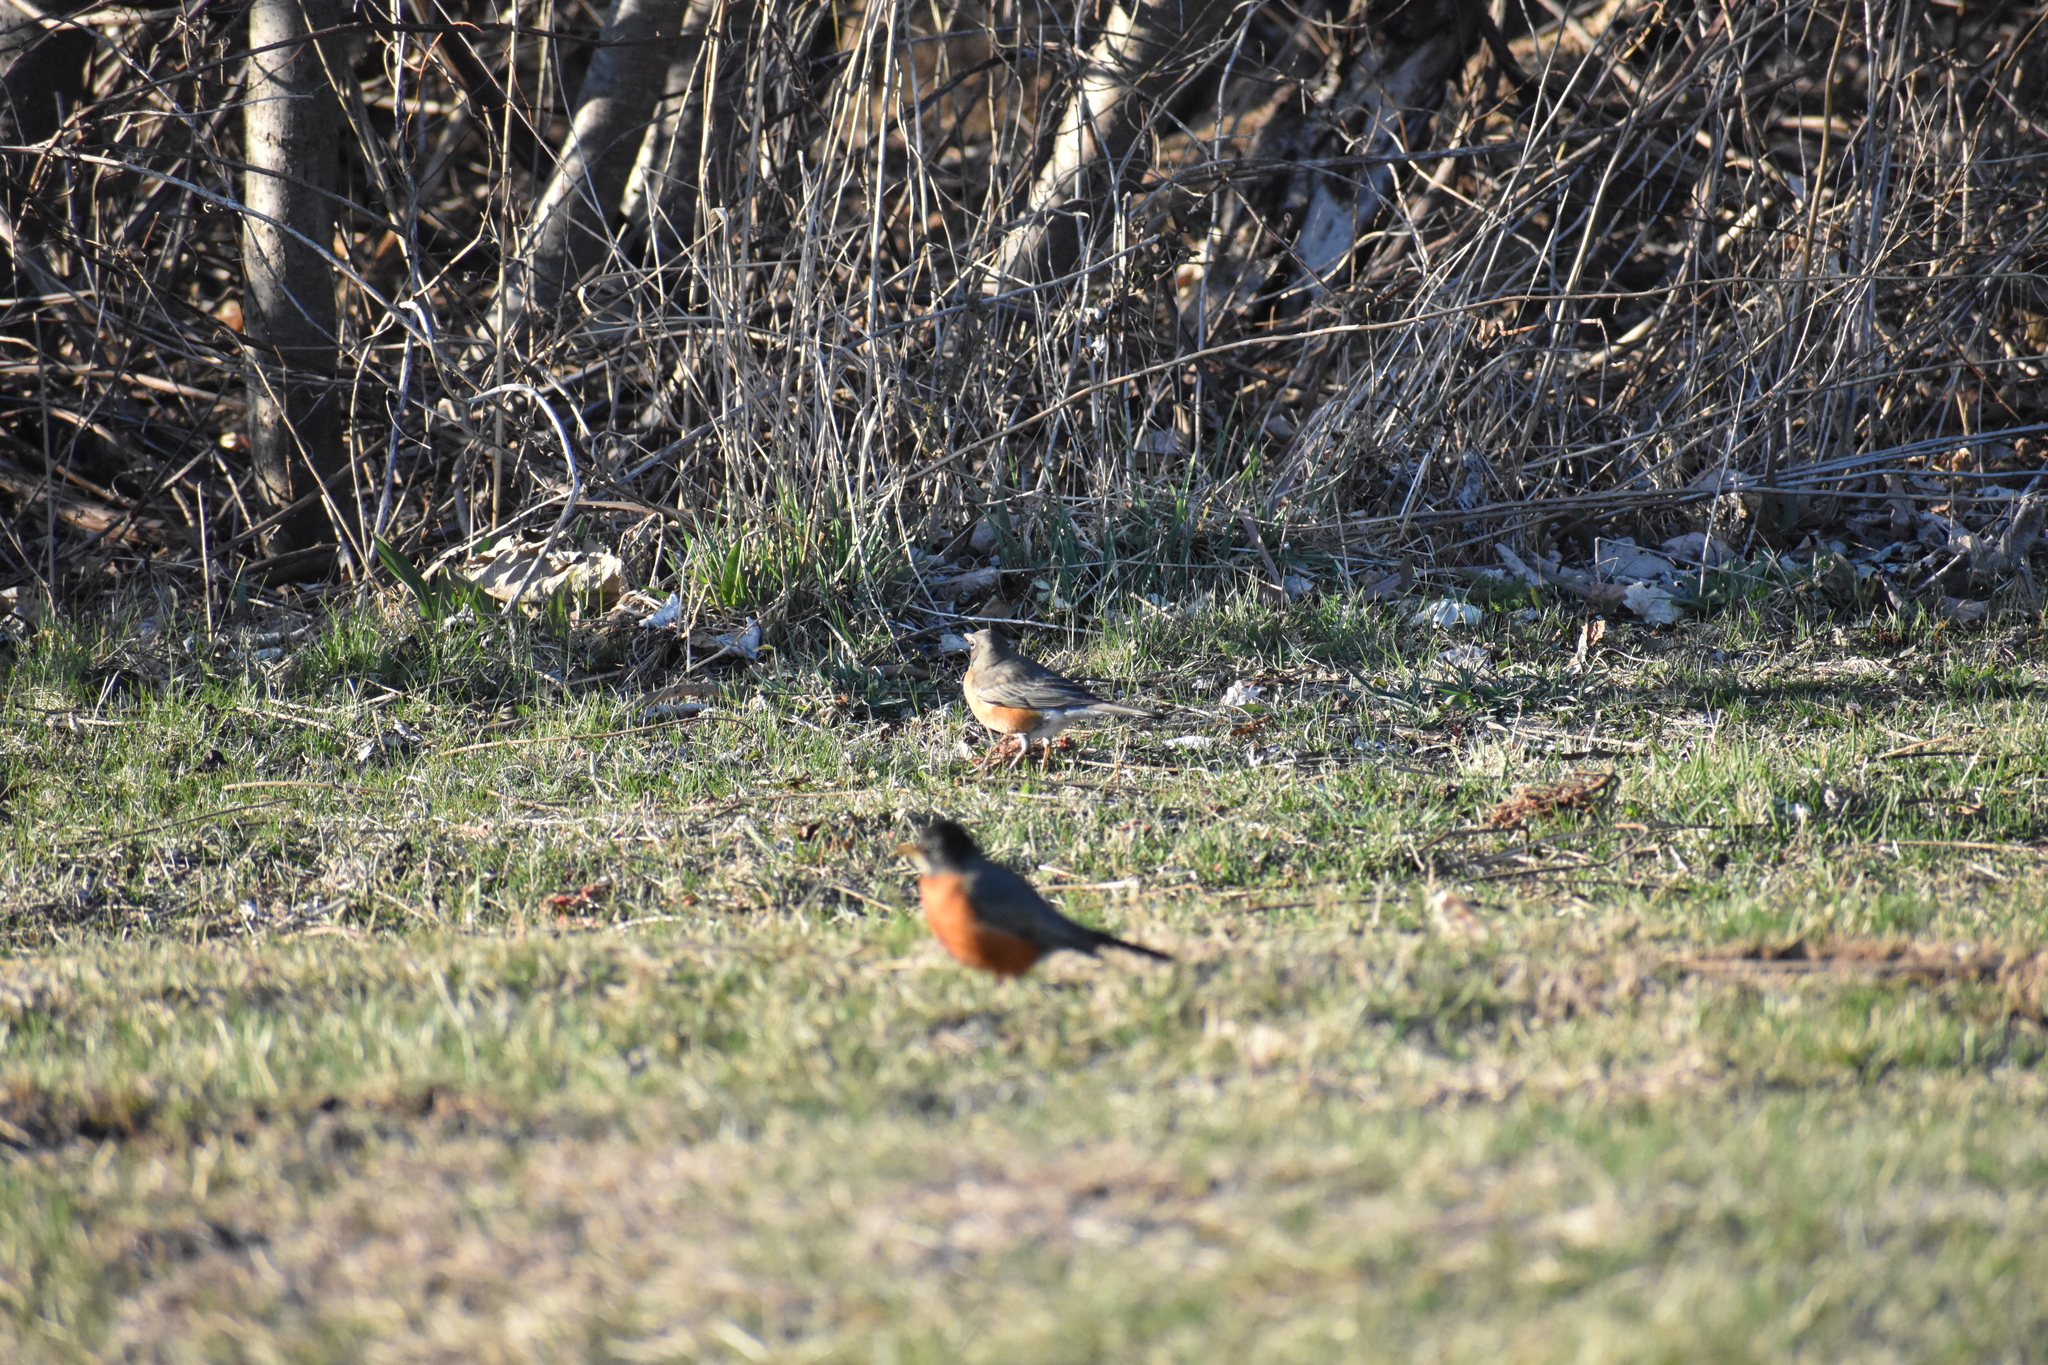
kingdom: Animalia
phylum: Chordata
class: Aves
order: Passeriformes
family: Turdidae
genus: Turdus
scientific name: Turdus migratorius
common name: American robin
